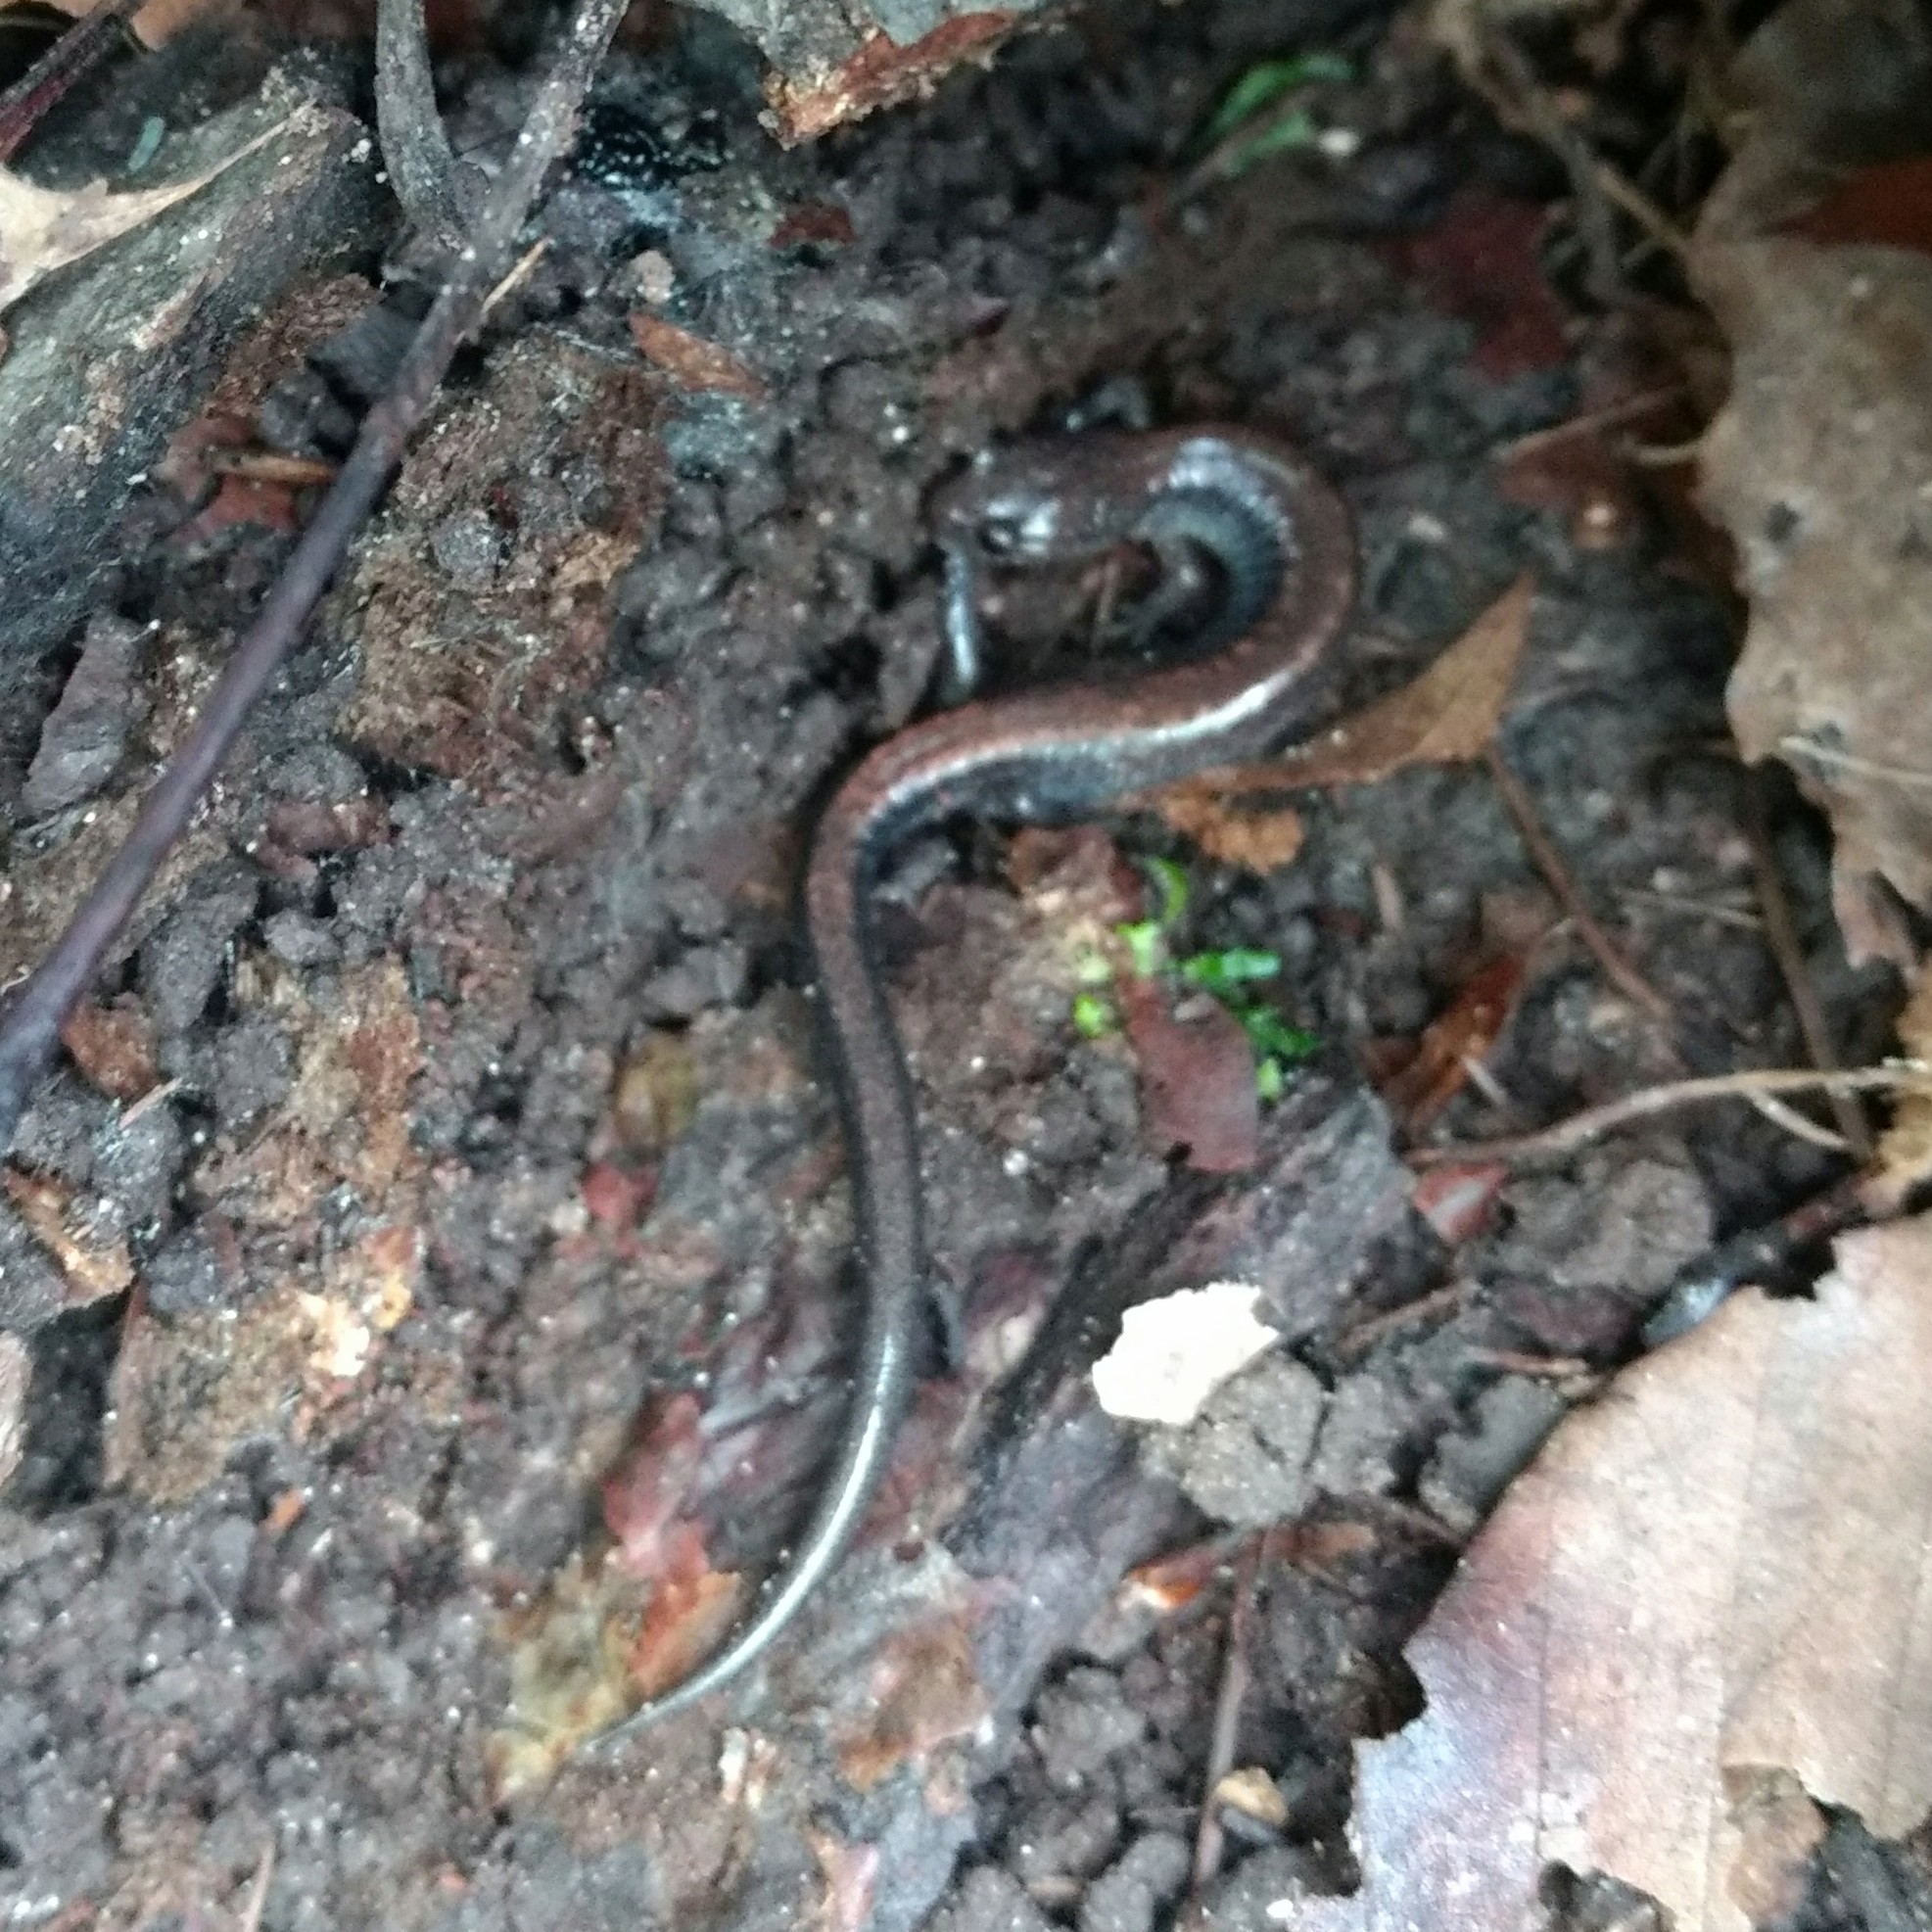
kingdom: Animalia
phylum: Chordata
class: Amphibia
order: Caudata
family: Plethodontidae
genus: Plethodon
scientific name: Plethodon cinereus
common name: Redback salamander
